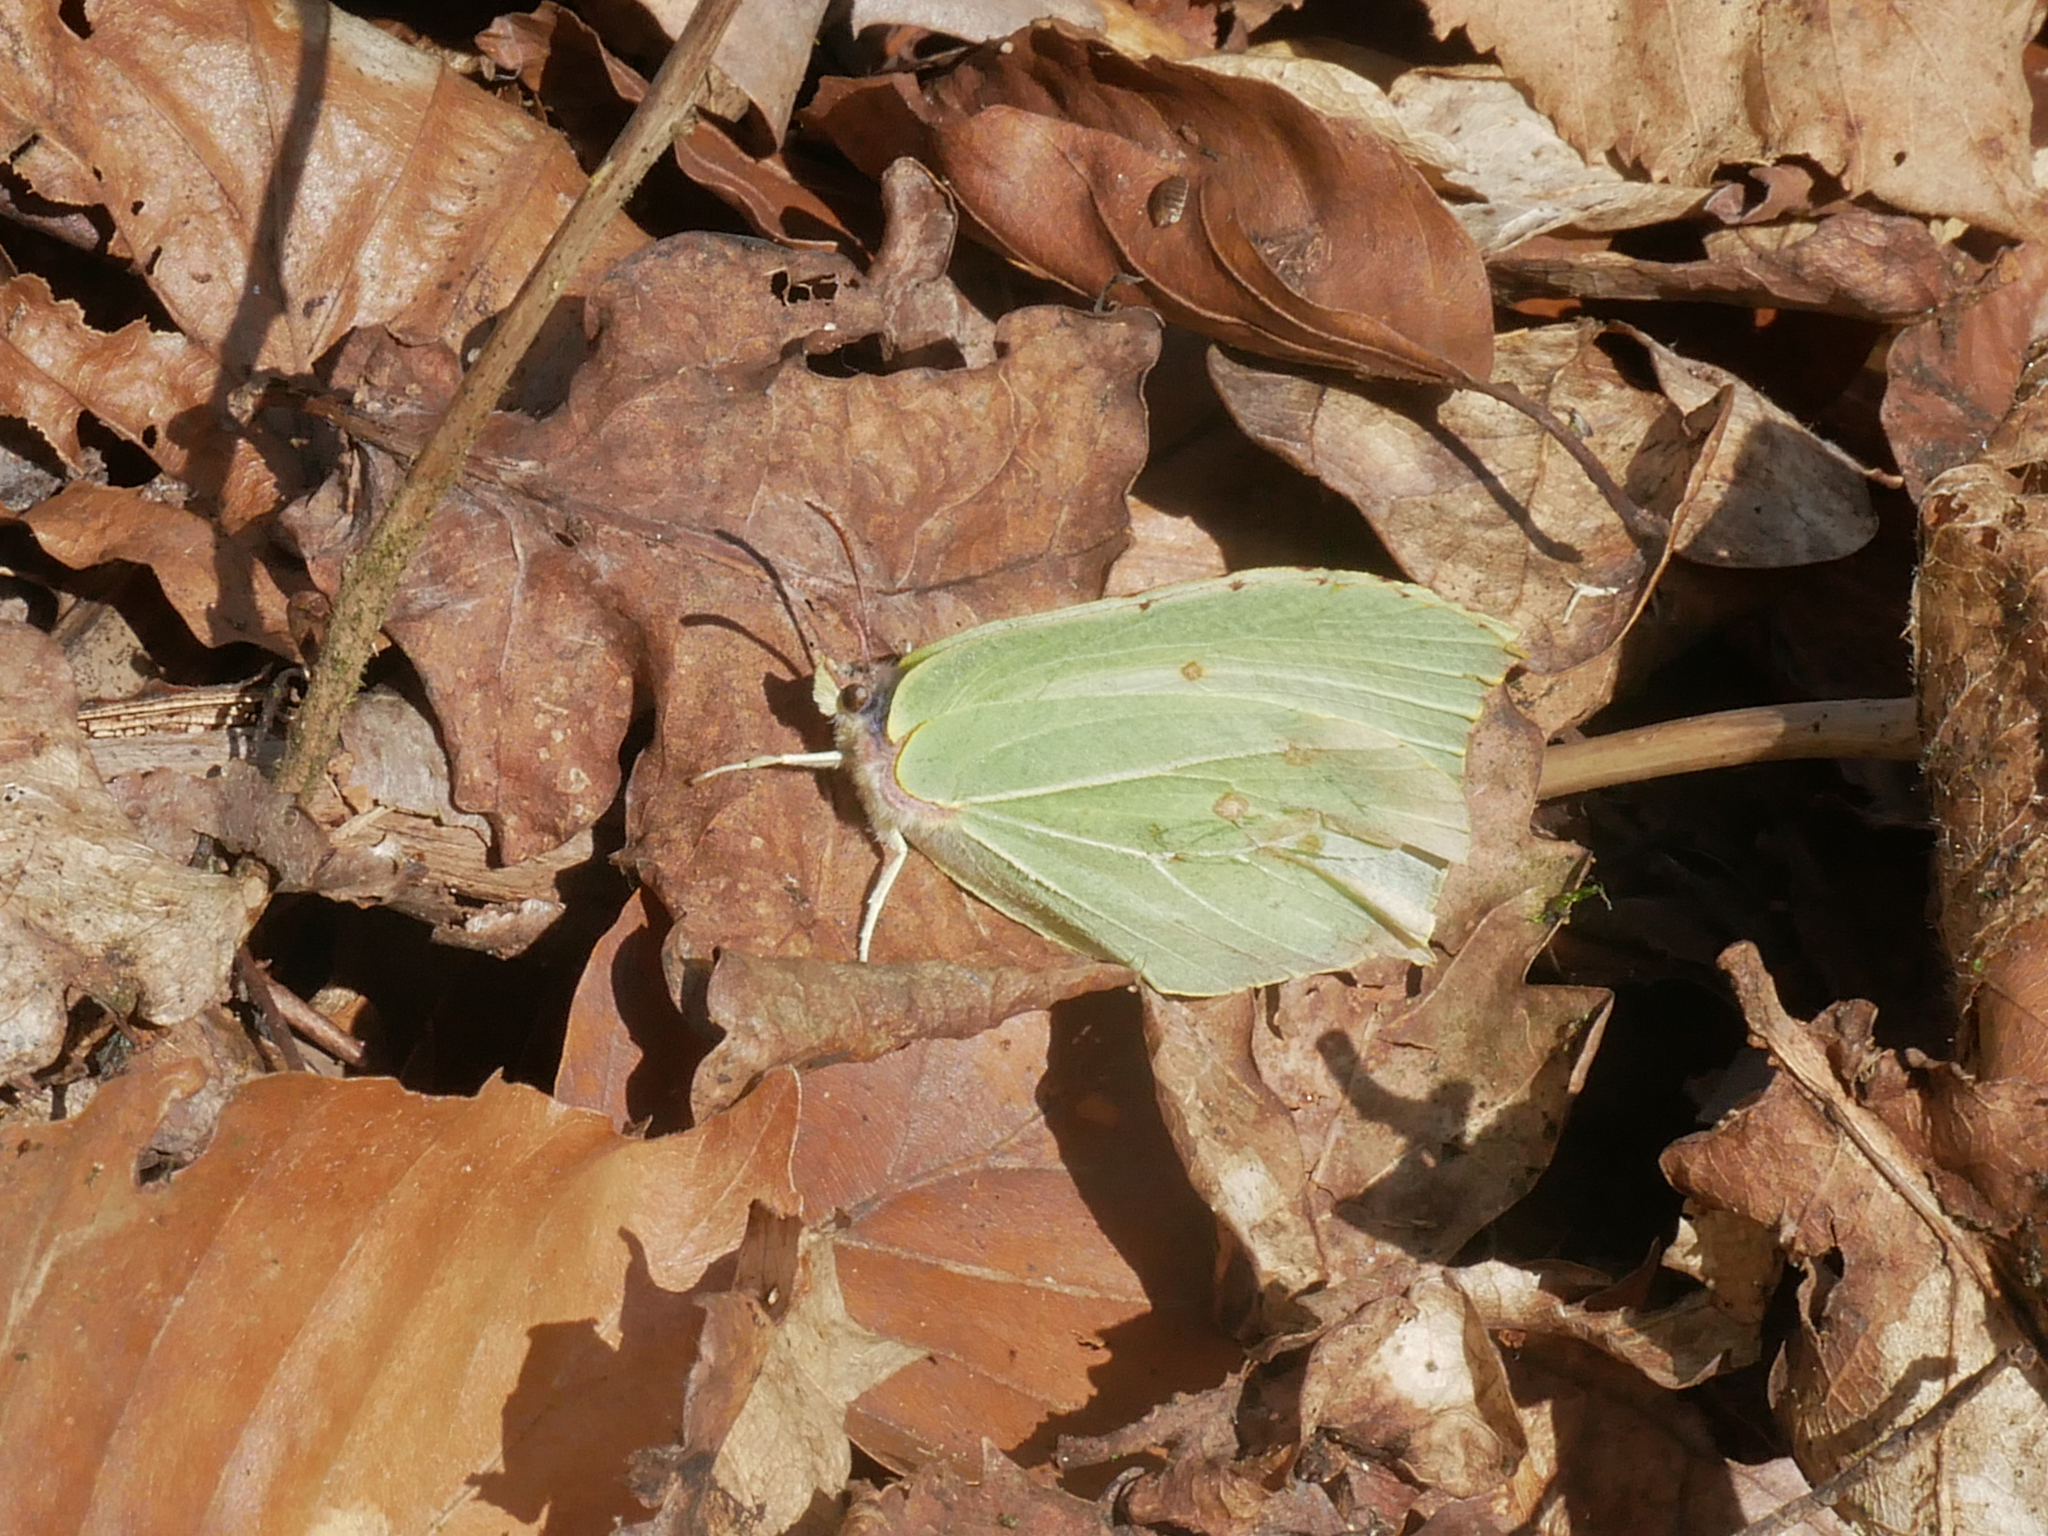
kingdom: Animalia
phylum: Arthropoda
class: Insecta
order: Lepidoptera
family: Pieridae
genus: Gonepteryx
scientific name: Gonepteryx rhamni
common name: Brimstone
